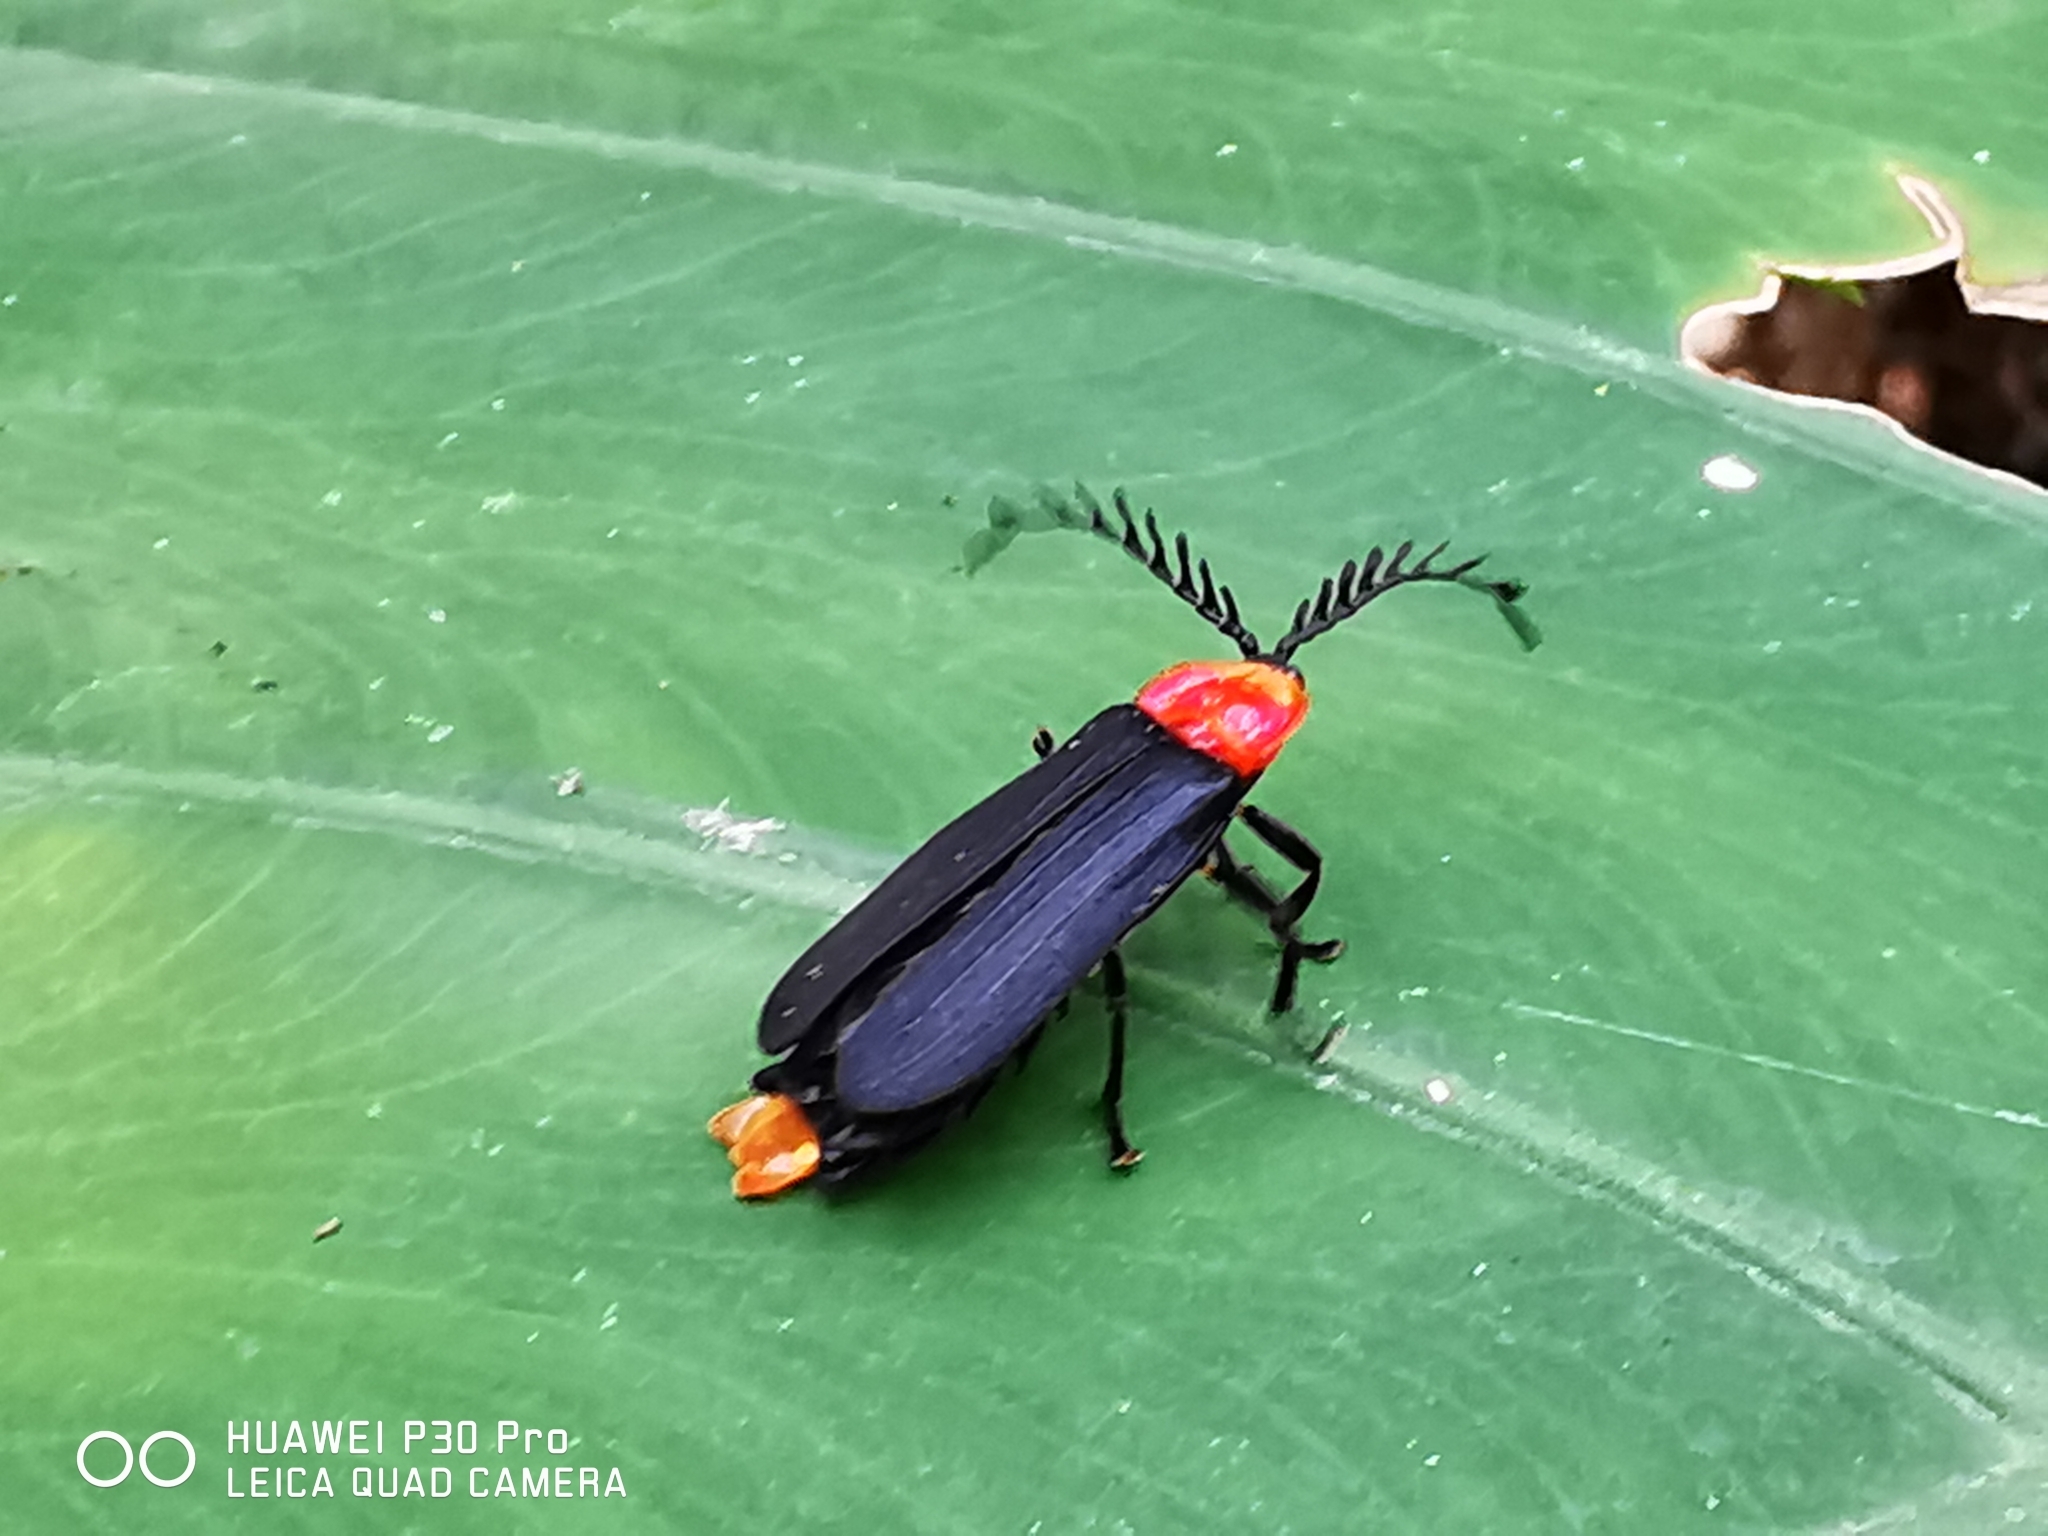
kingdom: Animalia
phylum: Arthropoda
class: Insecta
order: Coleoptera
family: Lampyridae
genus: Vesta
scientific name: Vesta scutellonigra
